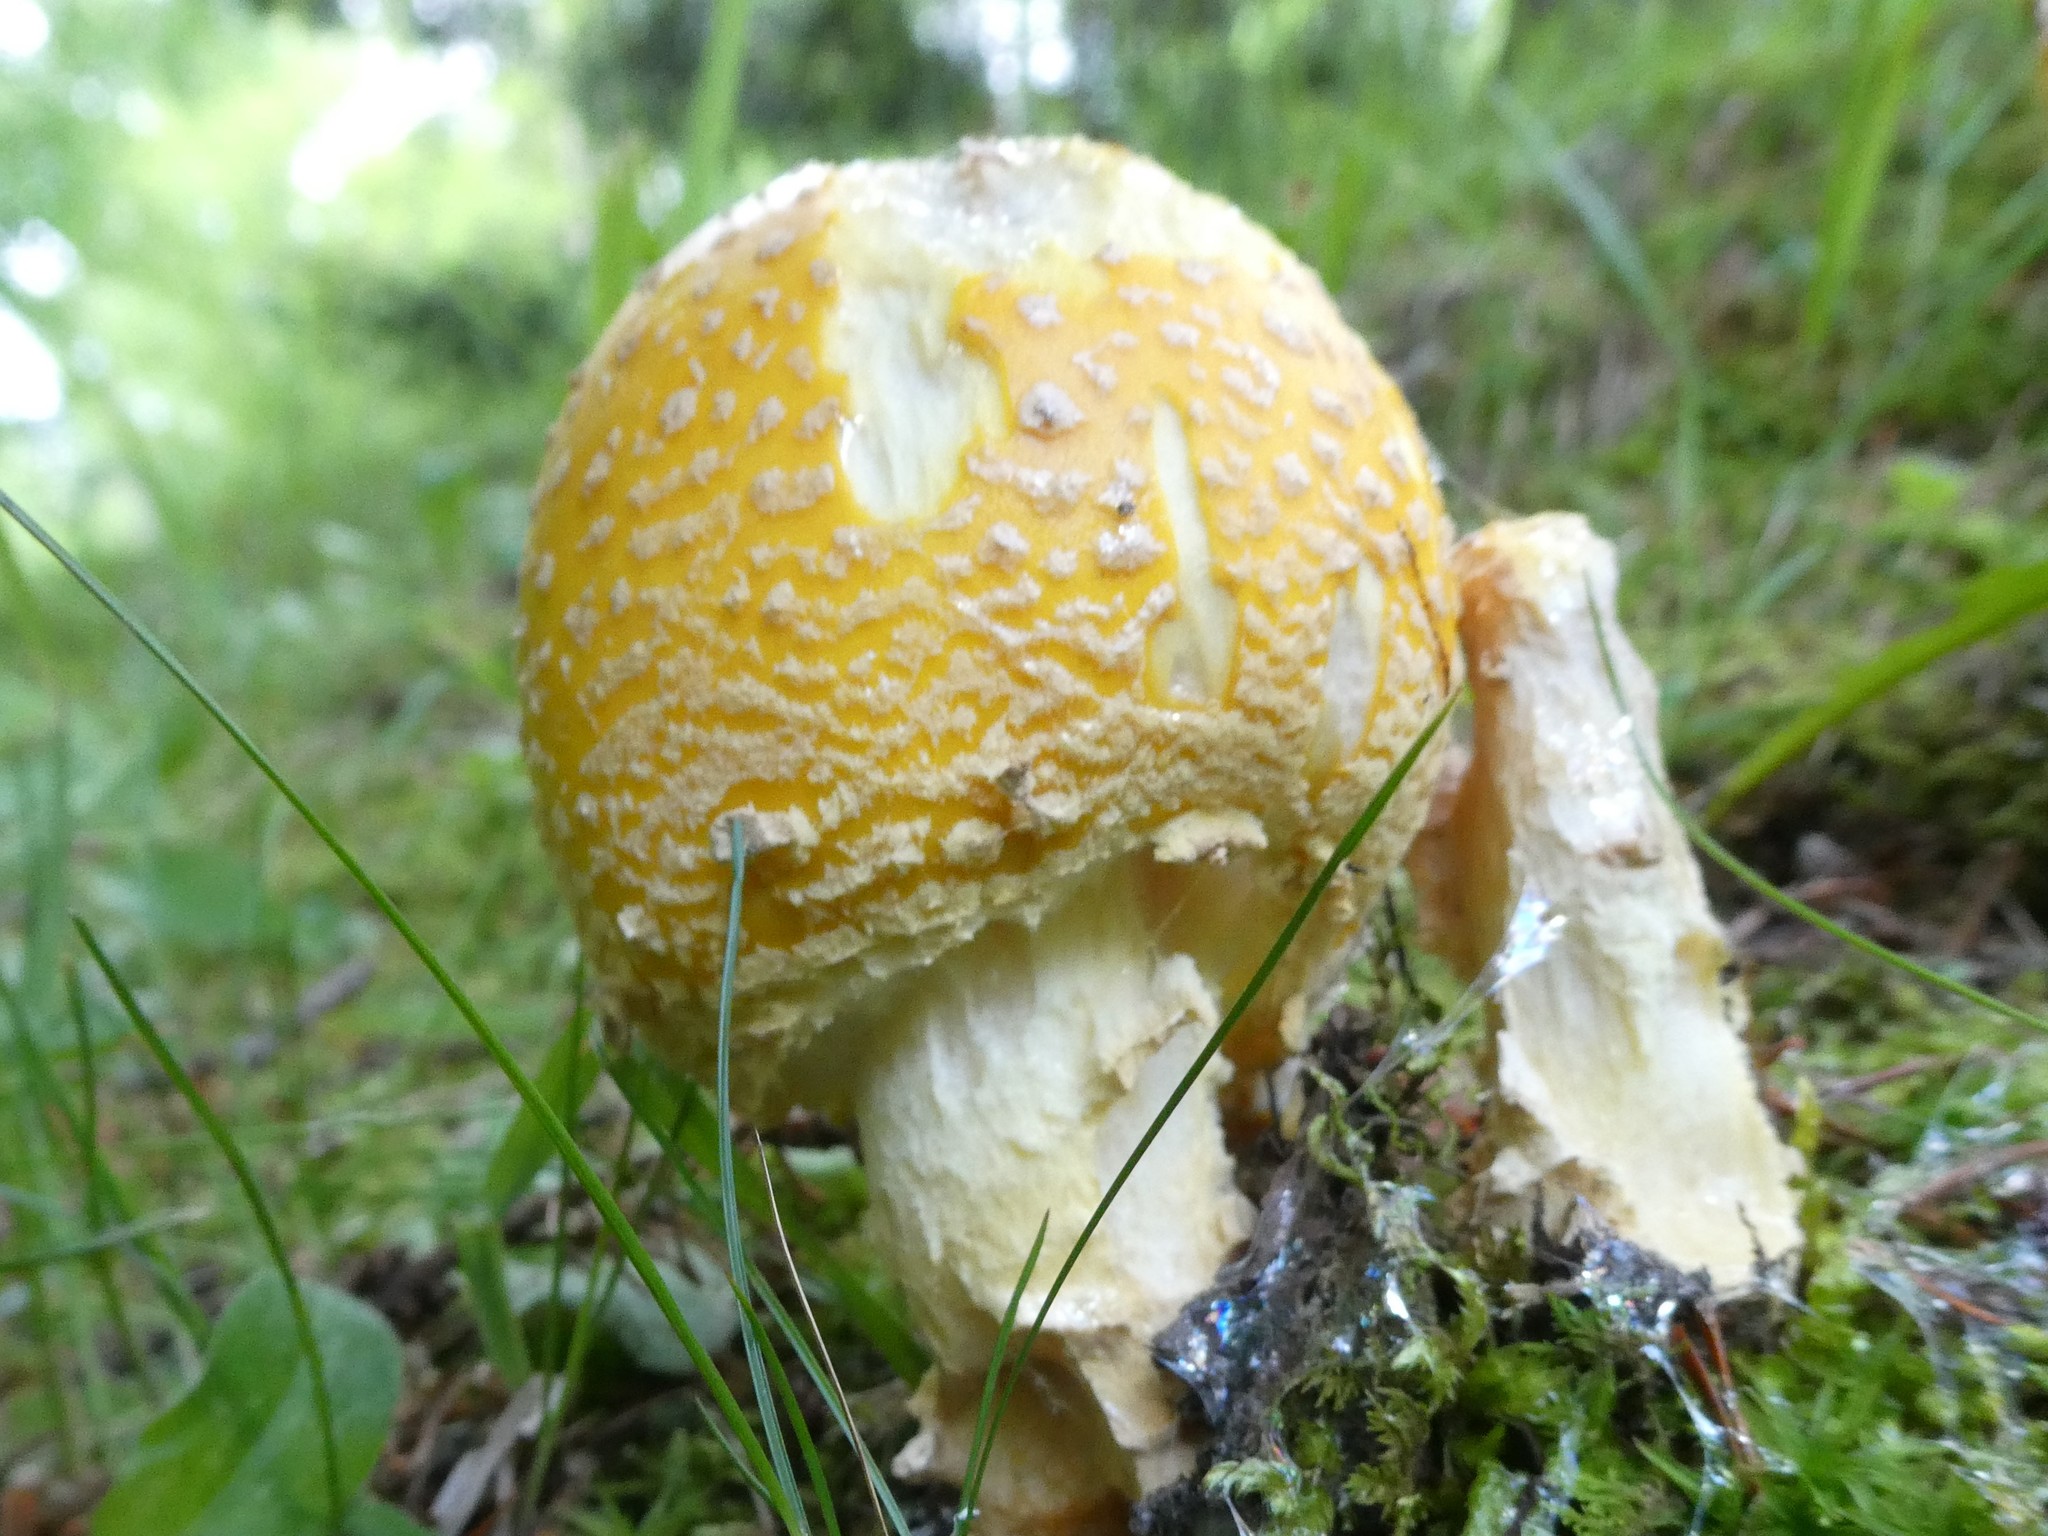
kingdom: Fungi
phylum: Basidiomycota
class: Agaricomycetes
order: Agaricales
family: Amanitaceae
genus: Amanita
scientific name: Amanita muscaria
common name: Fly agaric
